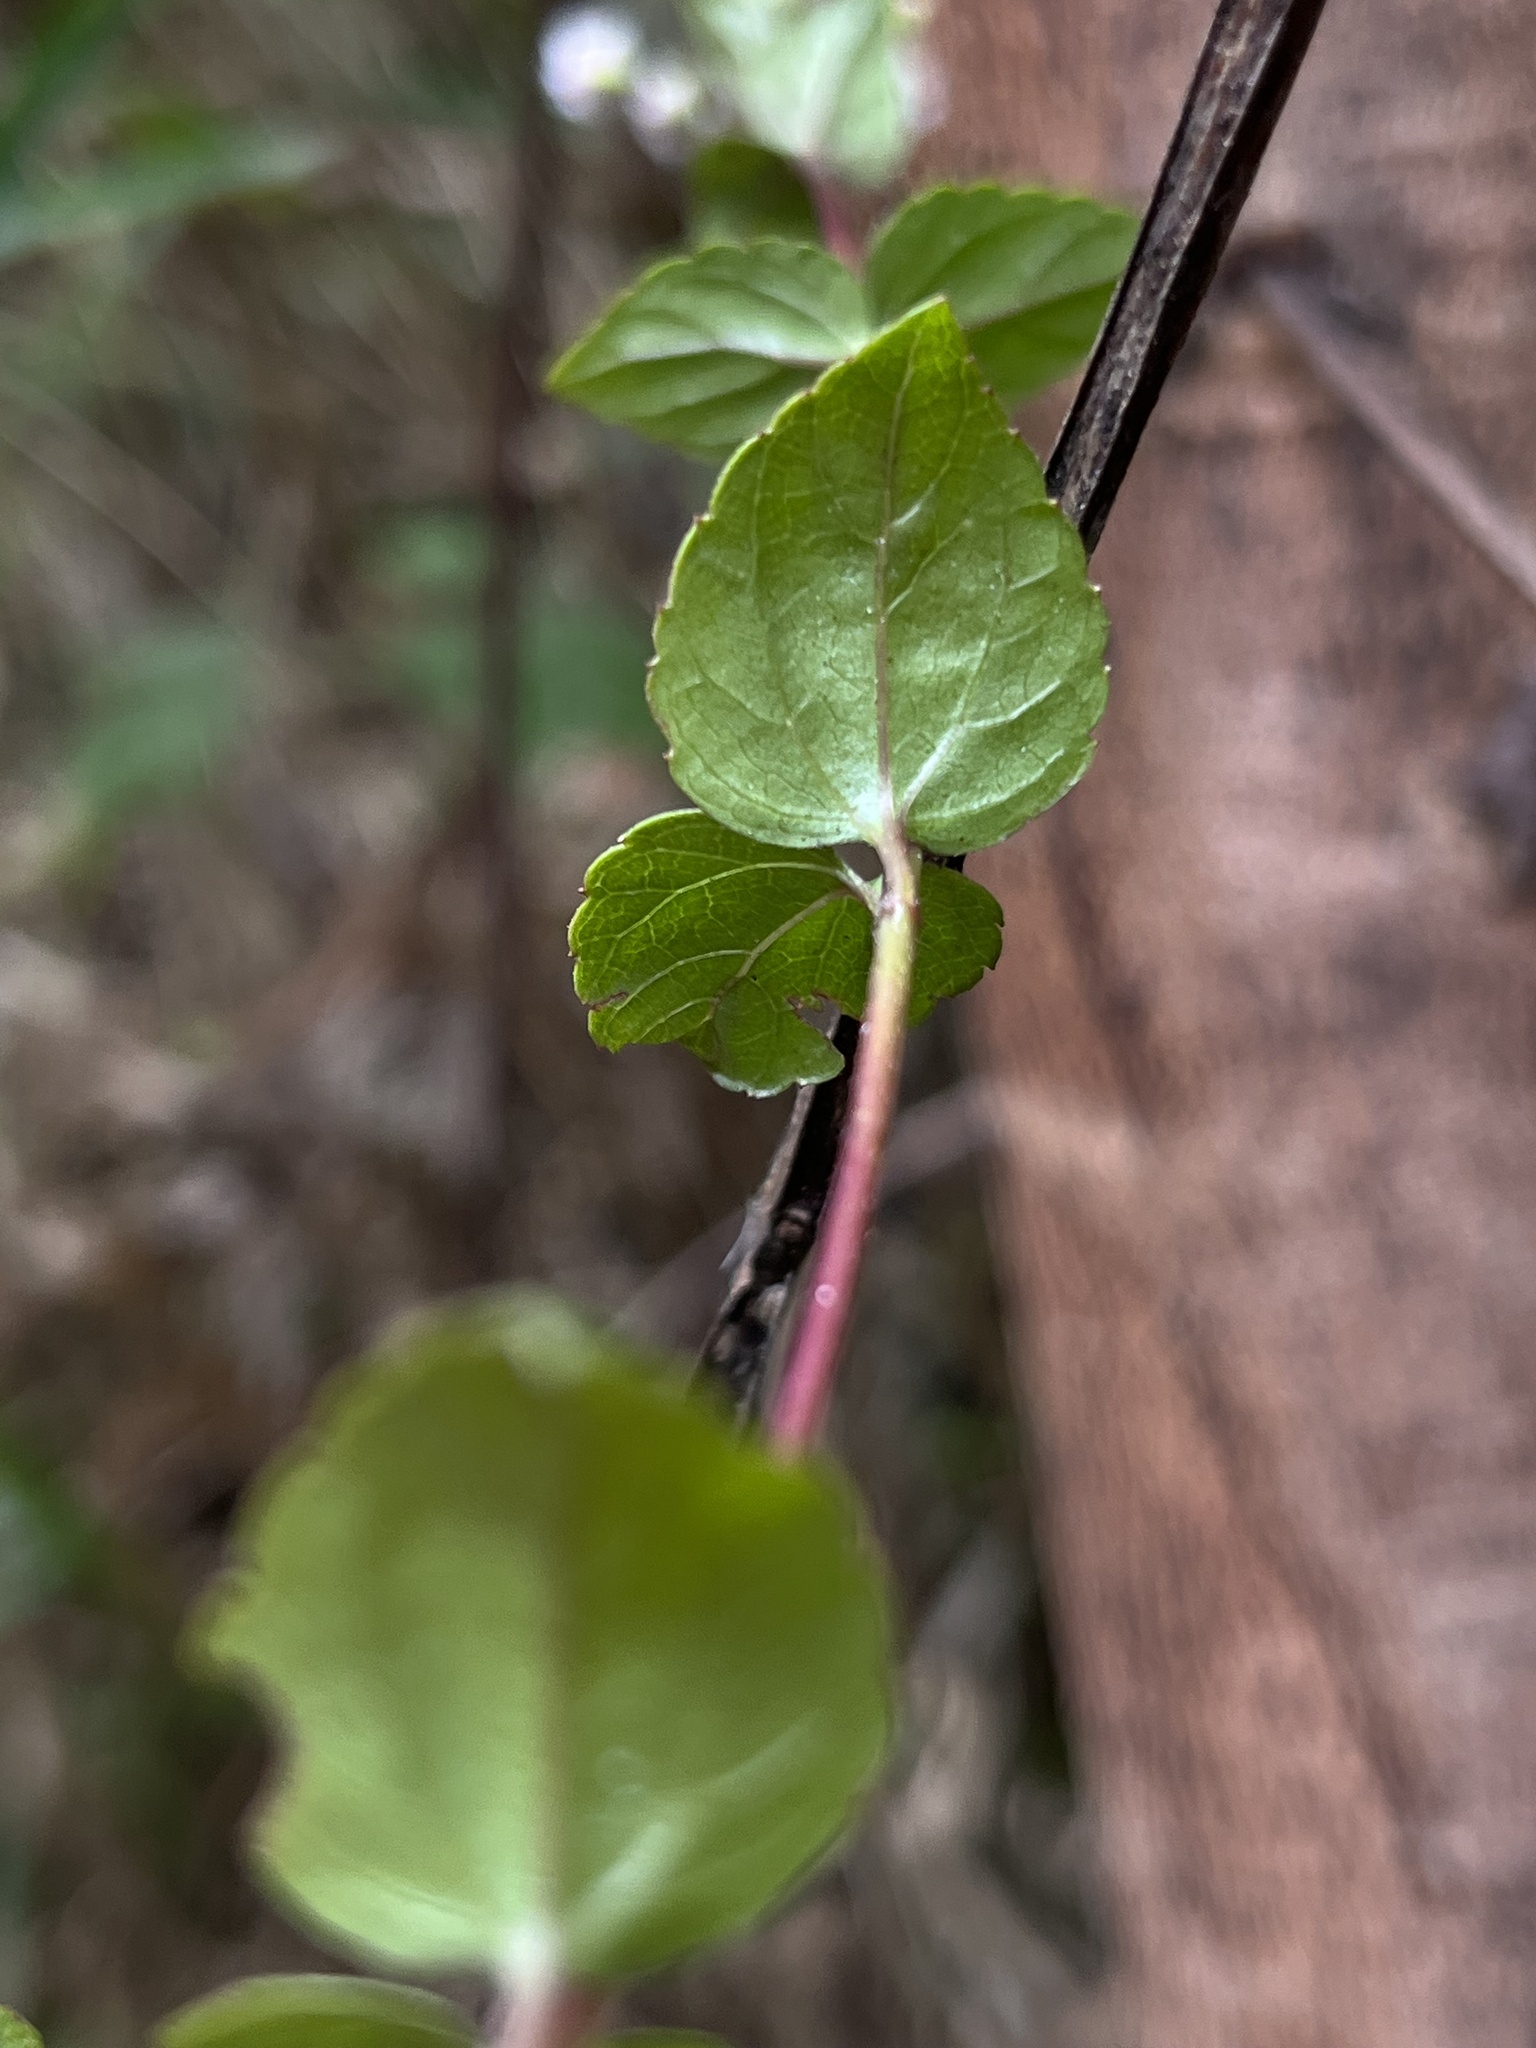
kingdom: Plantae
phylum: Tracheophyta
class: Magnoliopsida
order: Asterales
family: Asteraceae
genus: Ageratina
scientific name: Ageratina gracilis
